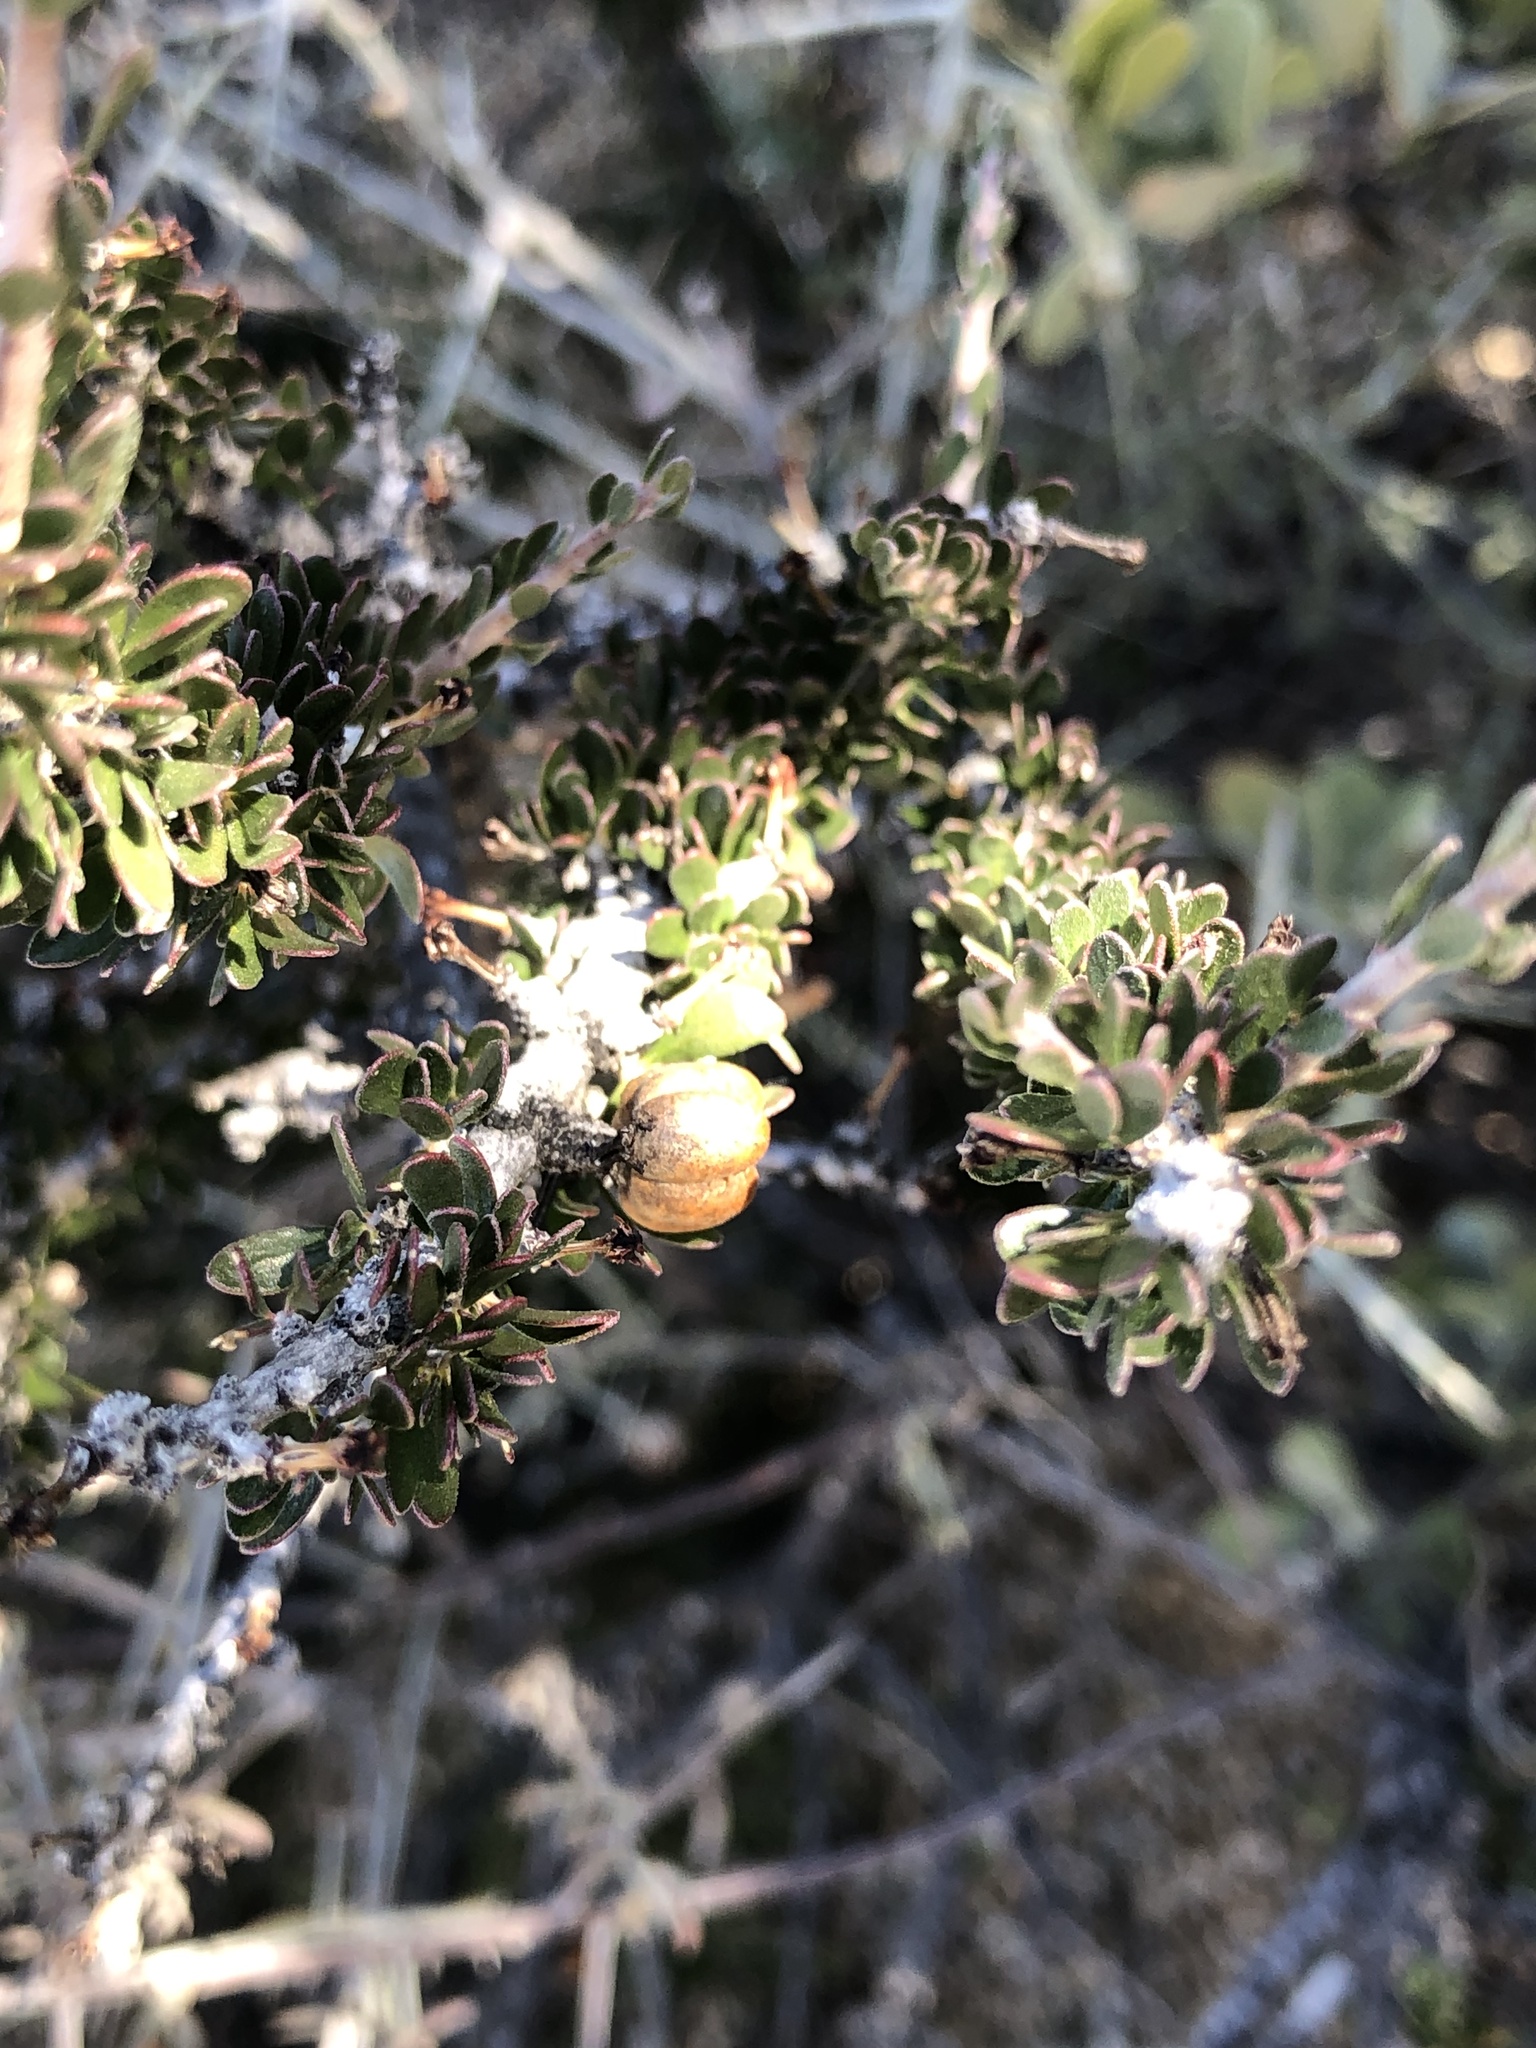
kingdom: Plantae
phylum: Tracheophyta
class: Magnoliopsida
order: Malpighiales
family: Picrodendraceae
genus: Tetracoccus
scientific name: Tetracoccus hallii
